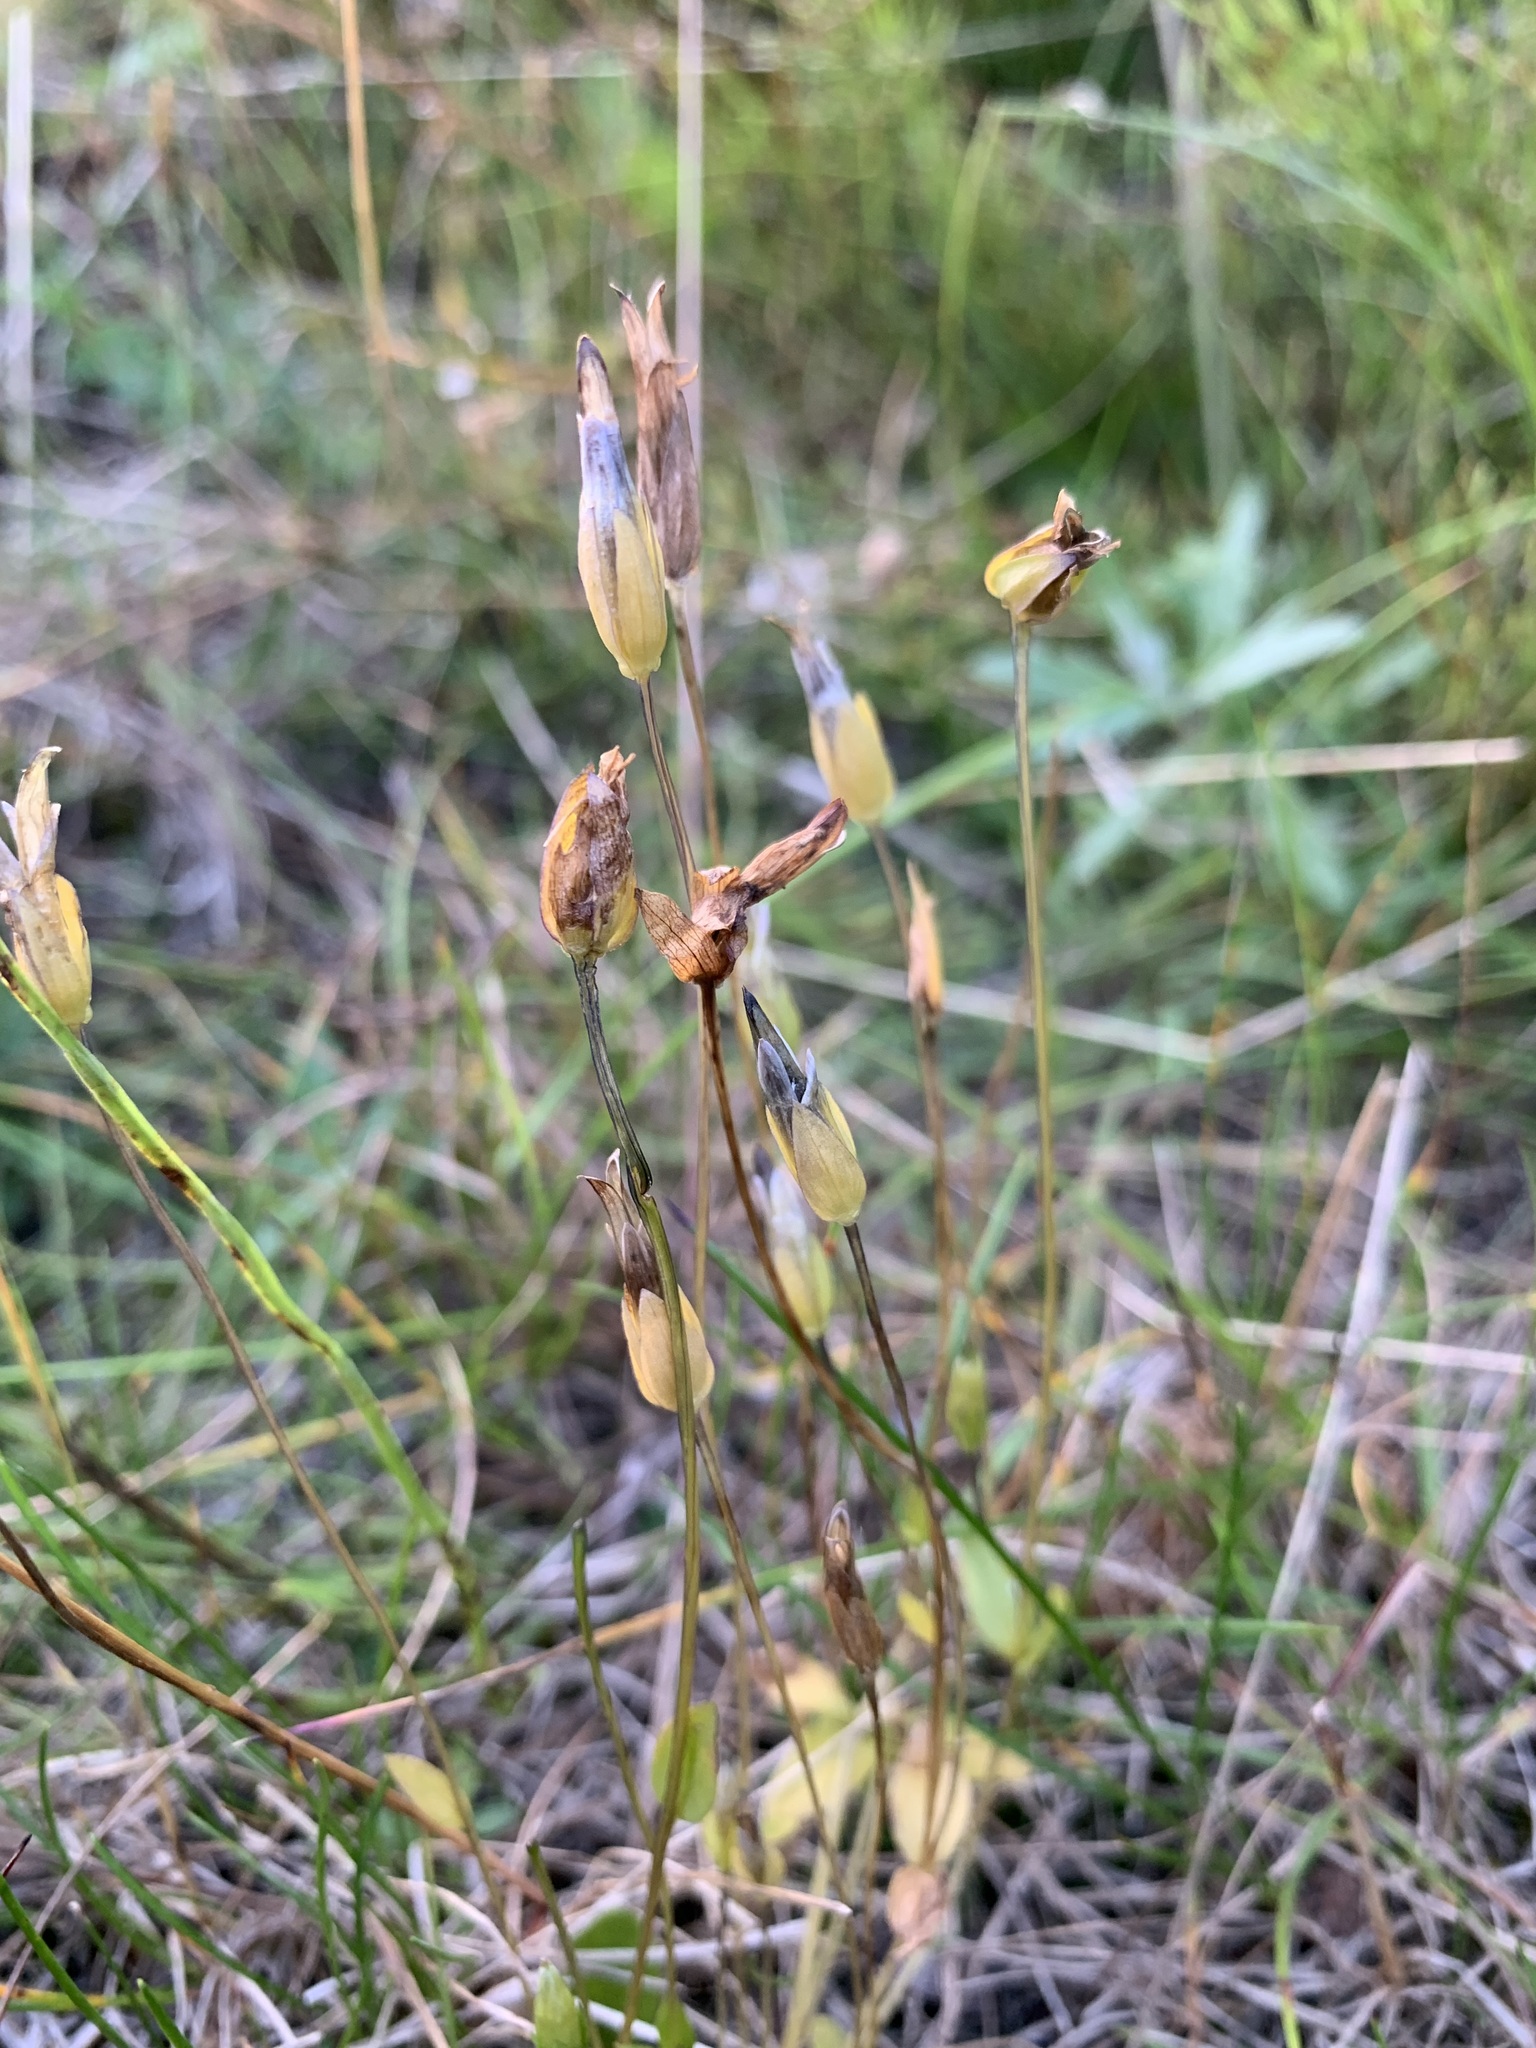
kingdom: Plantae
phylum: Tracheophyta
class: Magnoliopsida
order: Gentianales
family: Gentianaceae
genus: Comastoma
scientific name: Comastoma tenellum
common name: Dane's dwarf gentian
